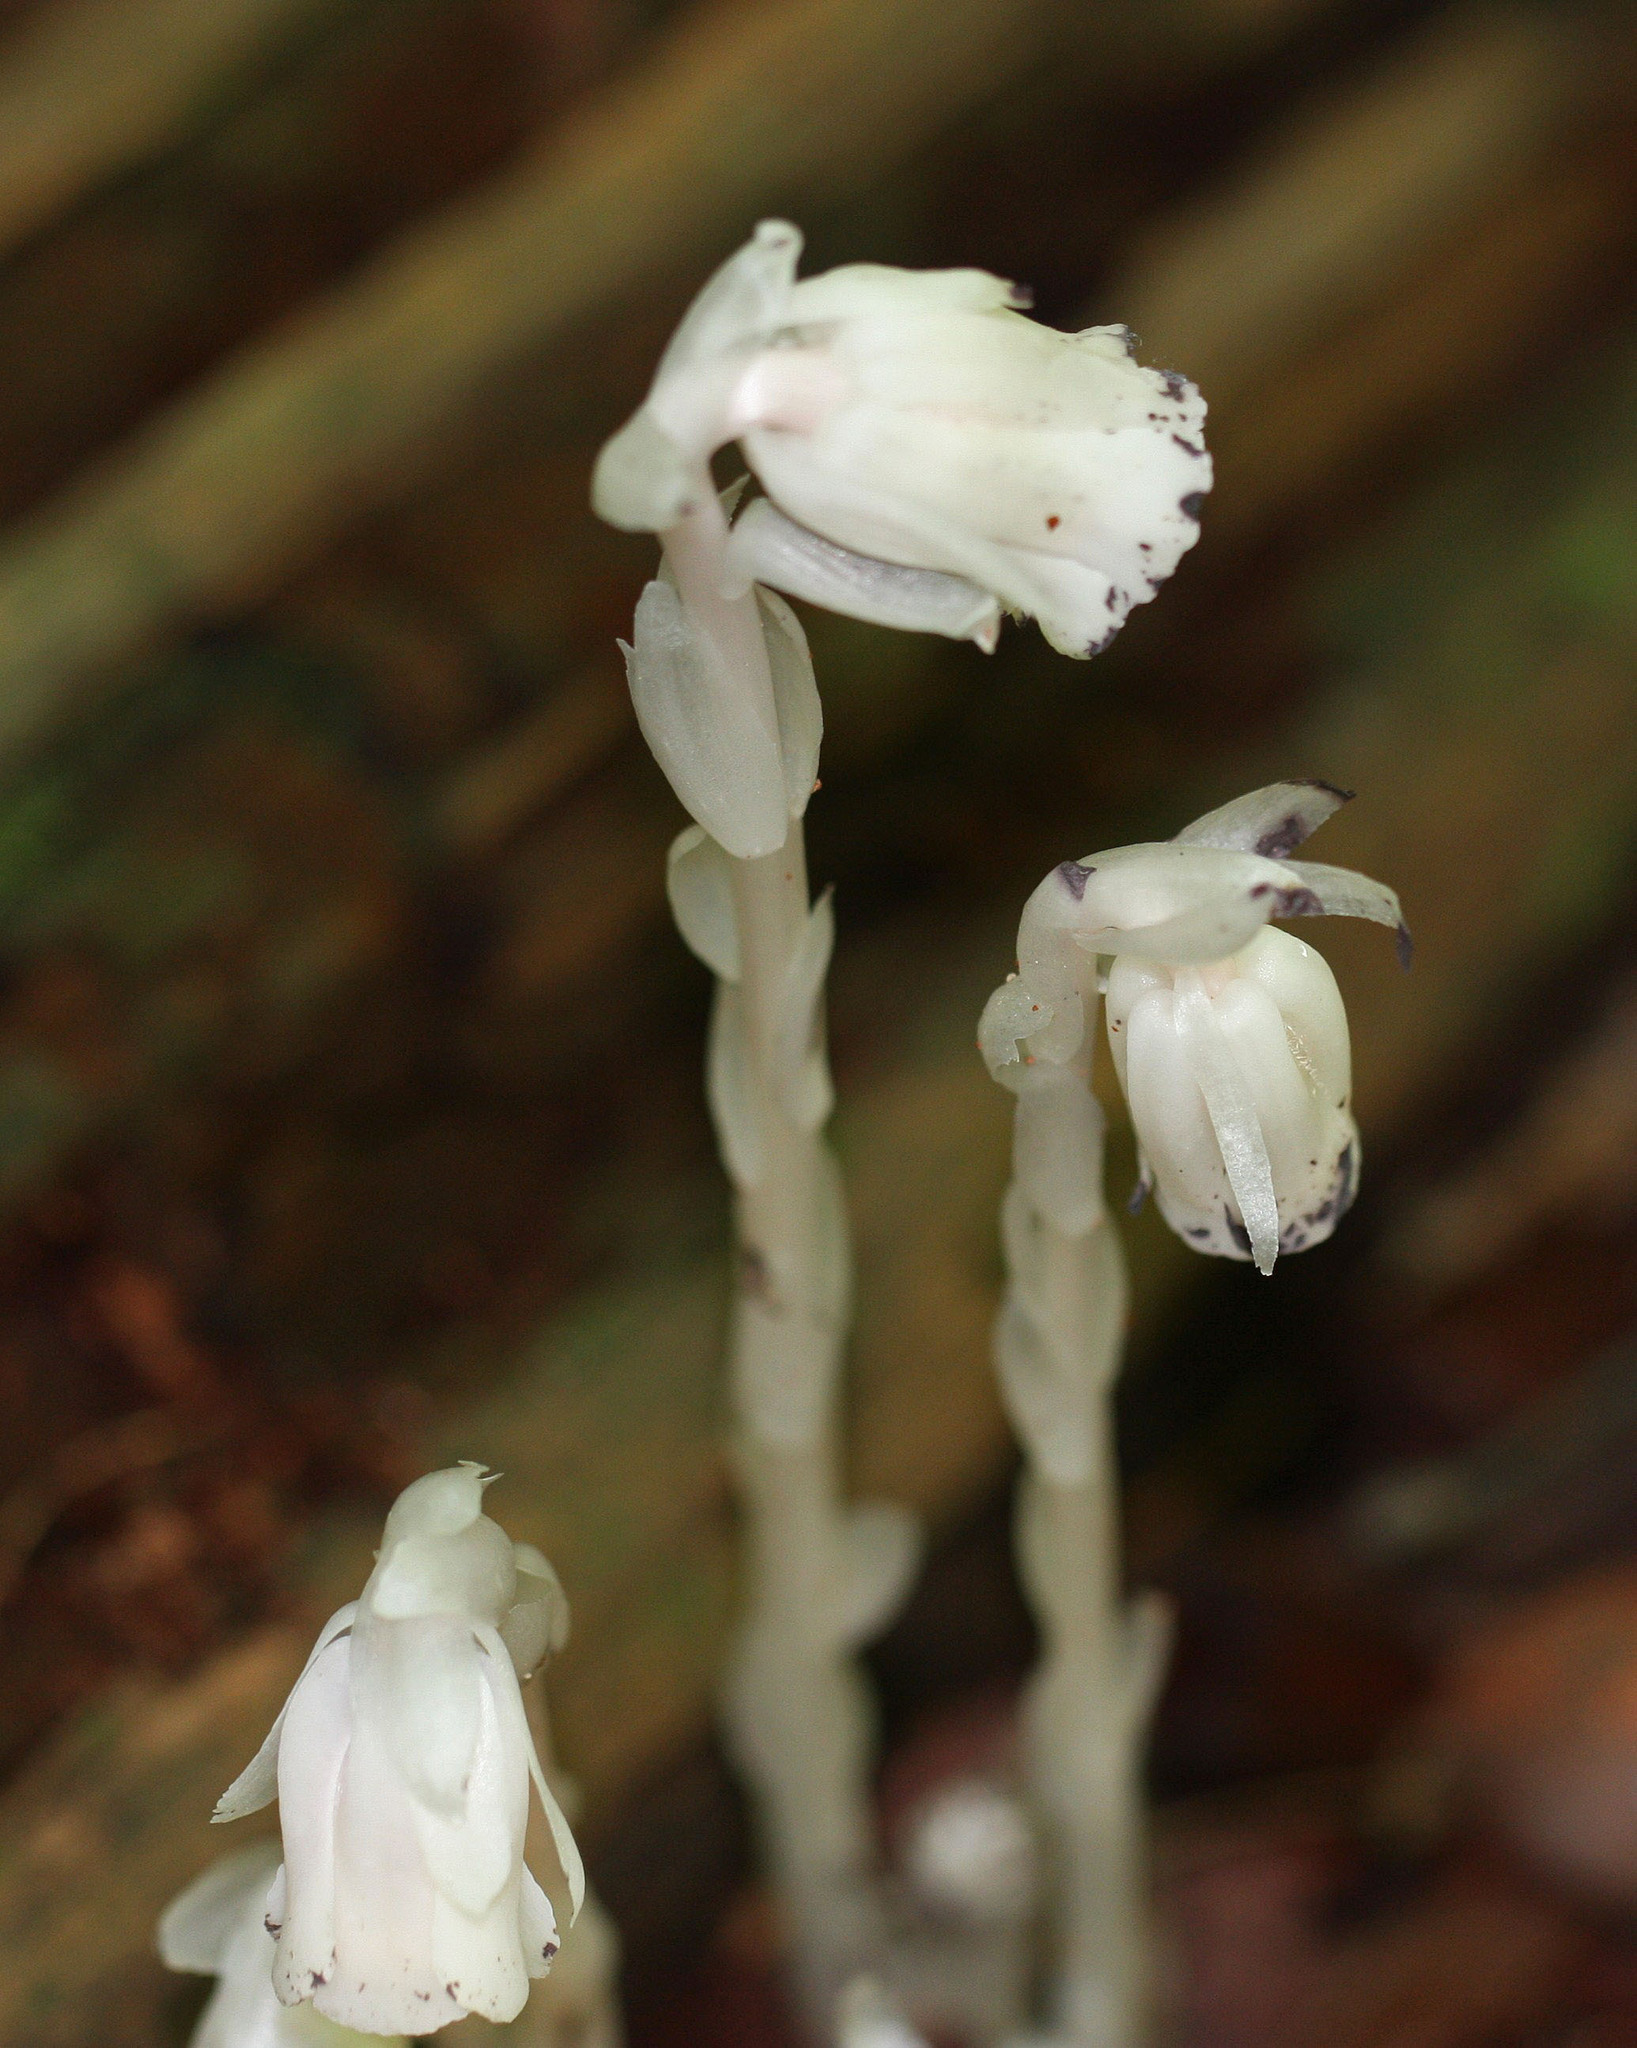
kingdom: Plantae
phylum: Tracheophyta
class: Magnoliopsida
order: Ericales
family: Ericaceae
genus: Monotropa
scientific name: Monotropa uniflora
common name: Convulsion root
